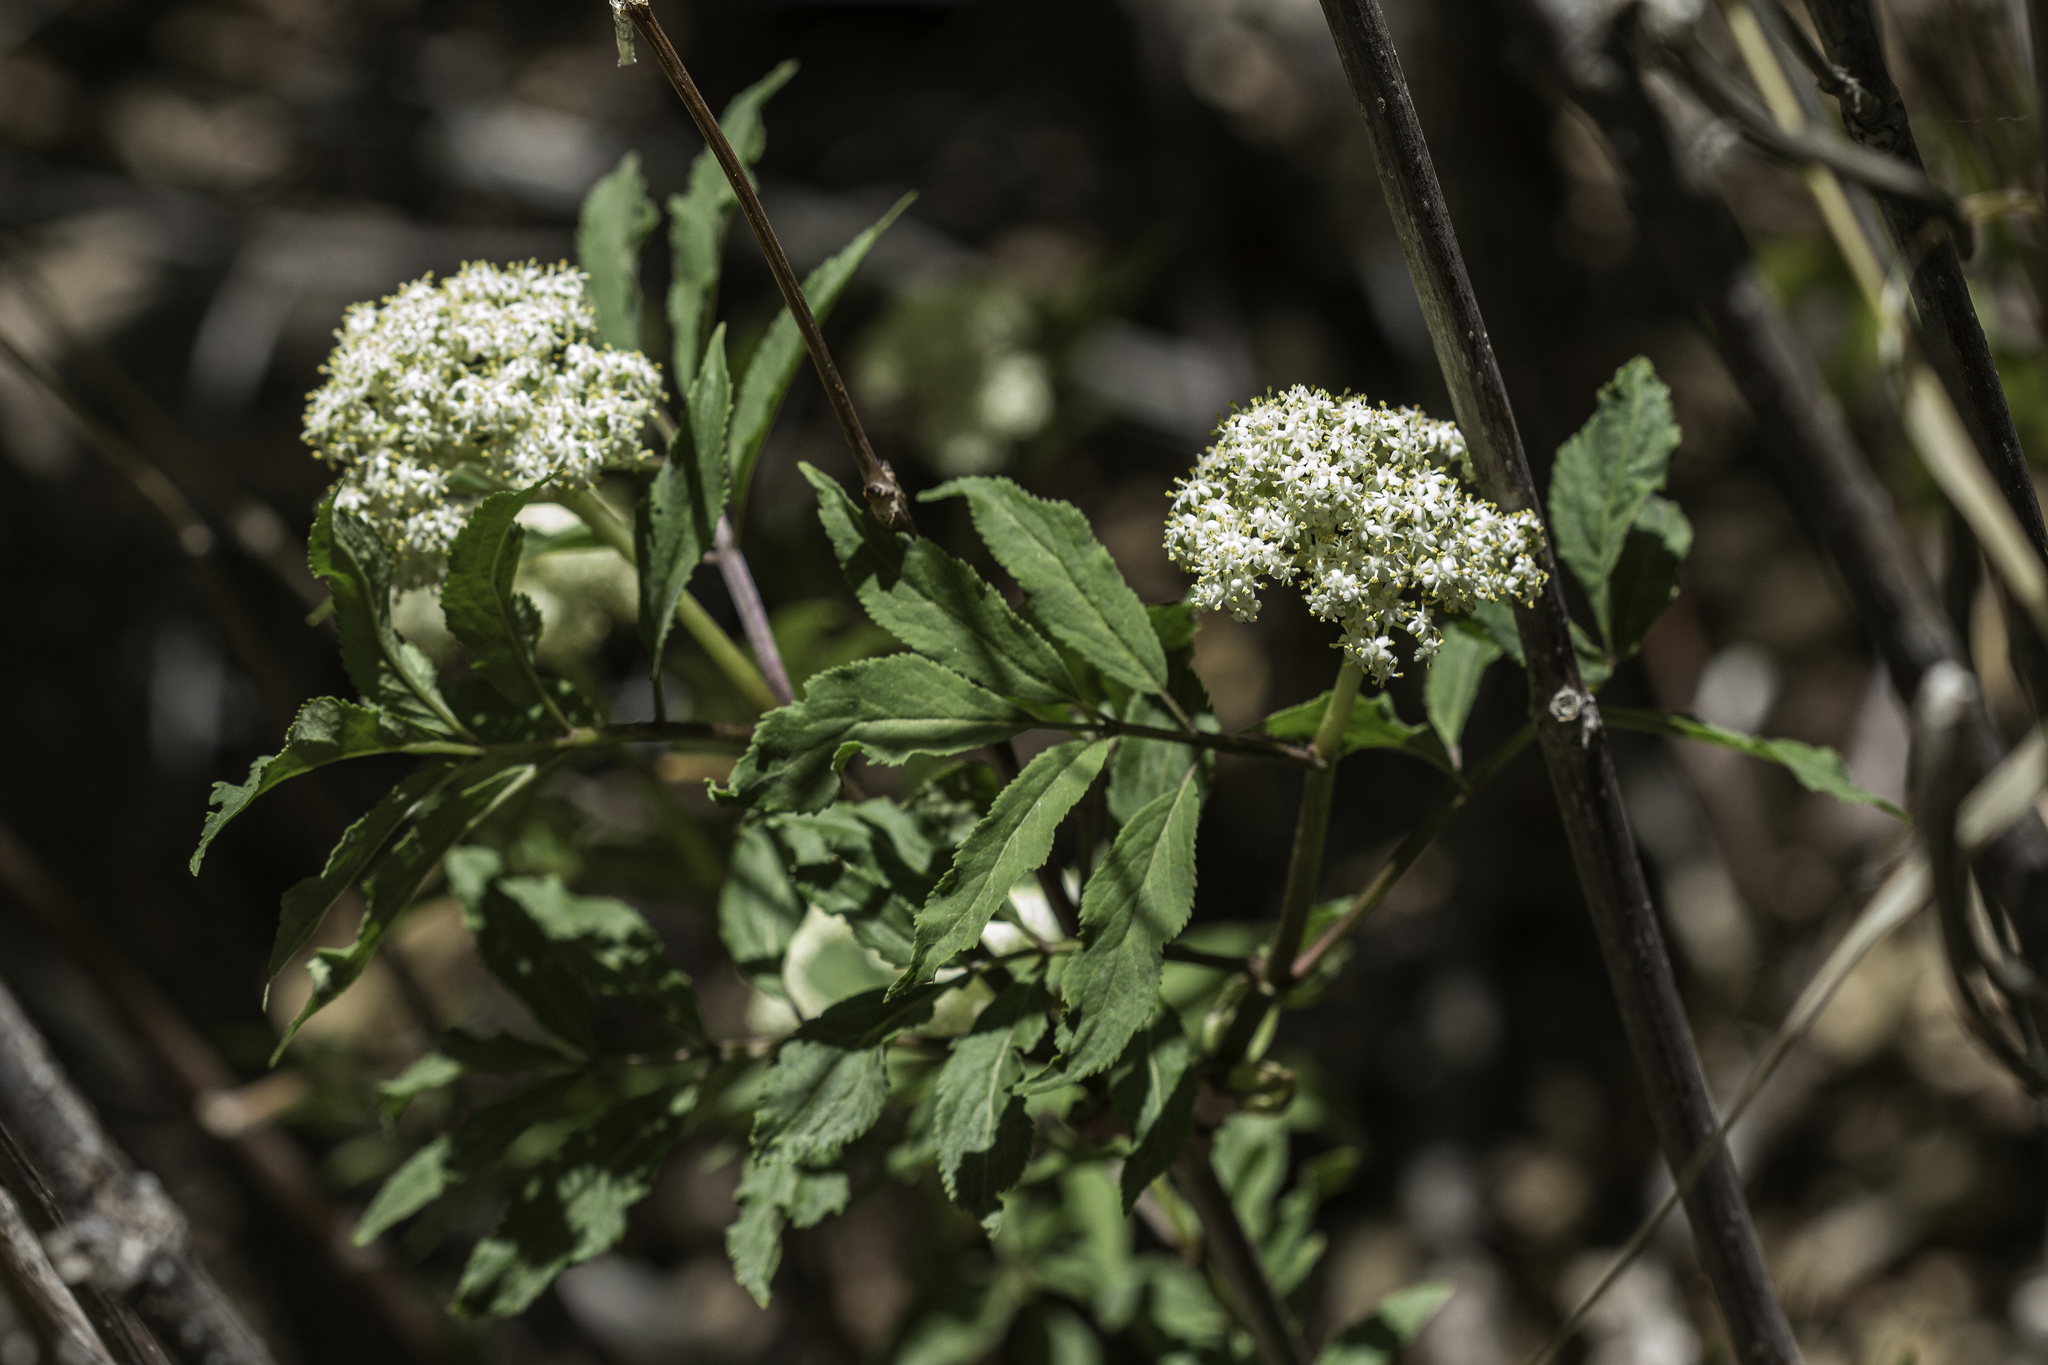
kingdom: Plantae
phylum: Tracheophyta
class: Magnoliopsida
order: Dipsacales
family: Viburnaceae
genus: Sambucus
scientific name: Sambucus racemosa
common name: Red-berried elder
